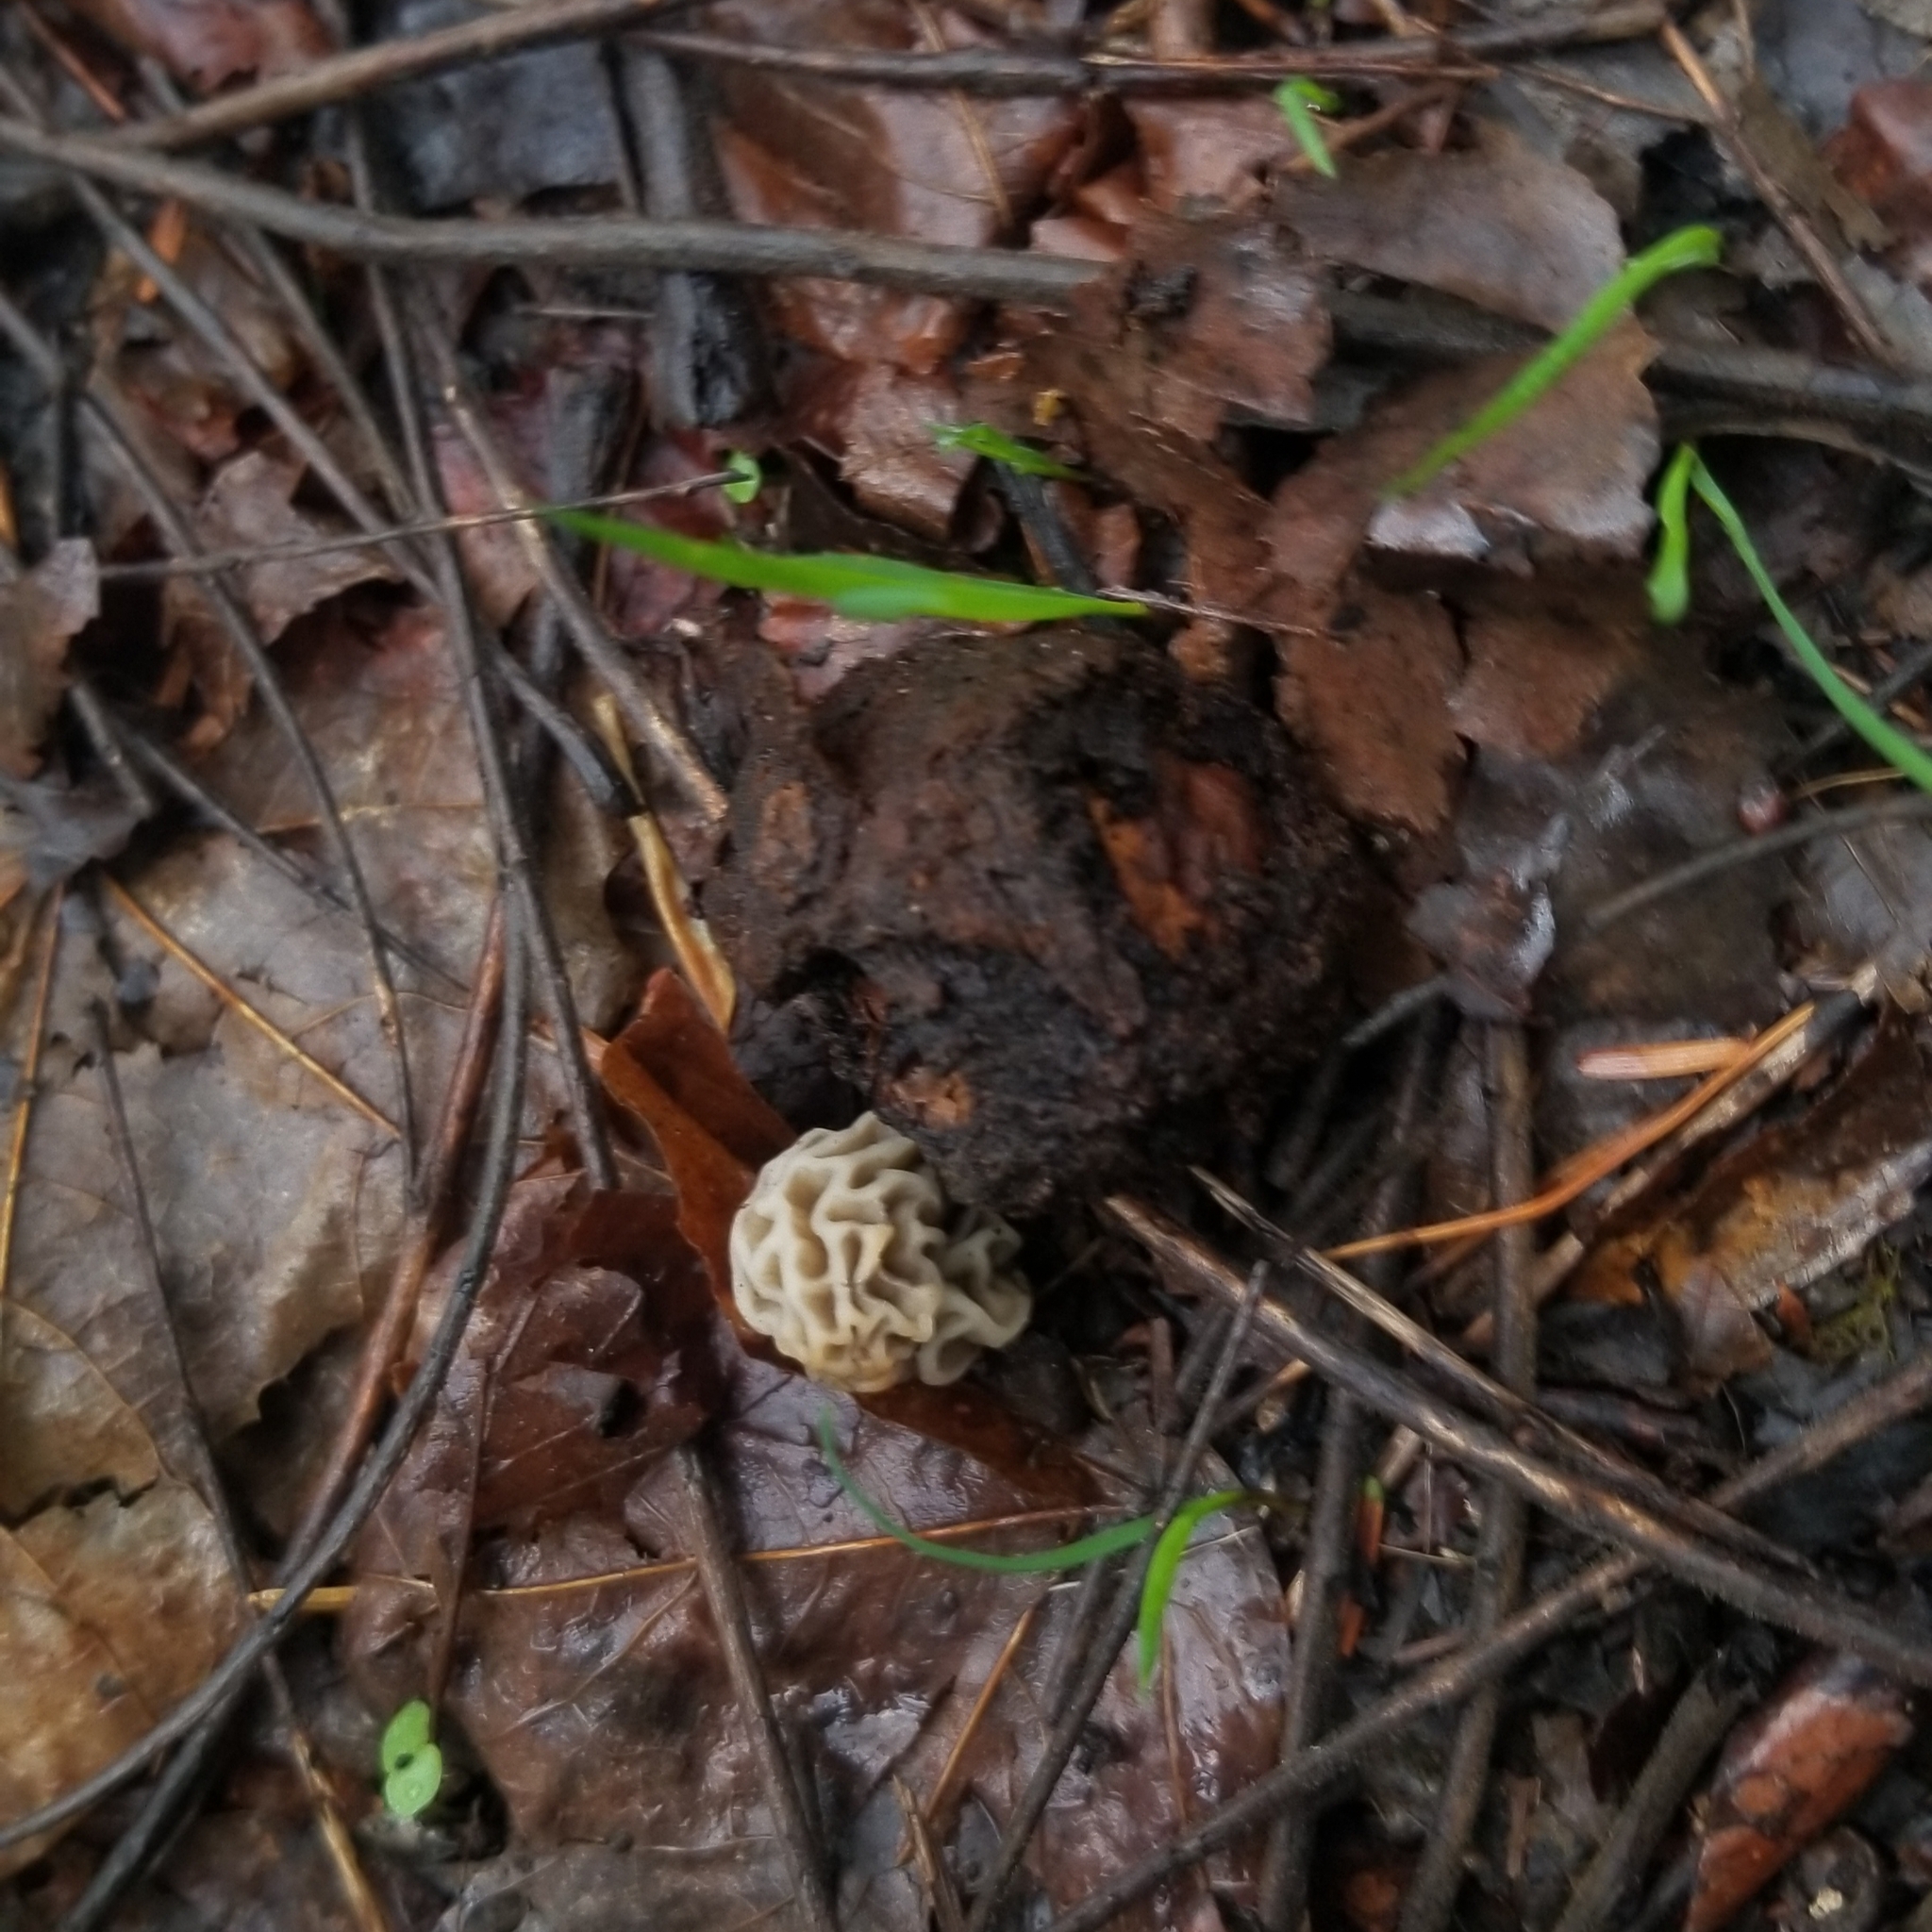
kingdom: Fungi
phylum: Ascomycota
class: Pezizomycetes
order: Pezizales
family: Morchellaceae
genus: Morchella
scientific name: Morchella americana
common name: White morel
